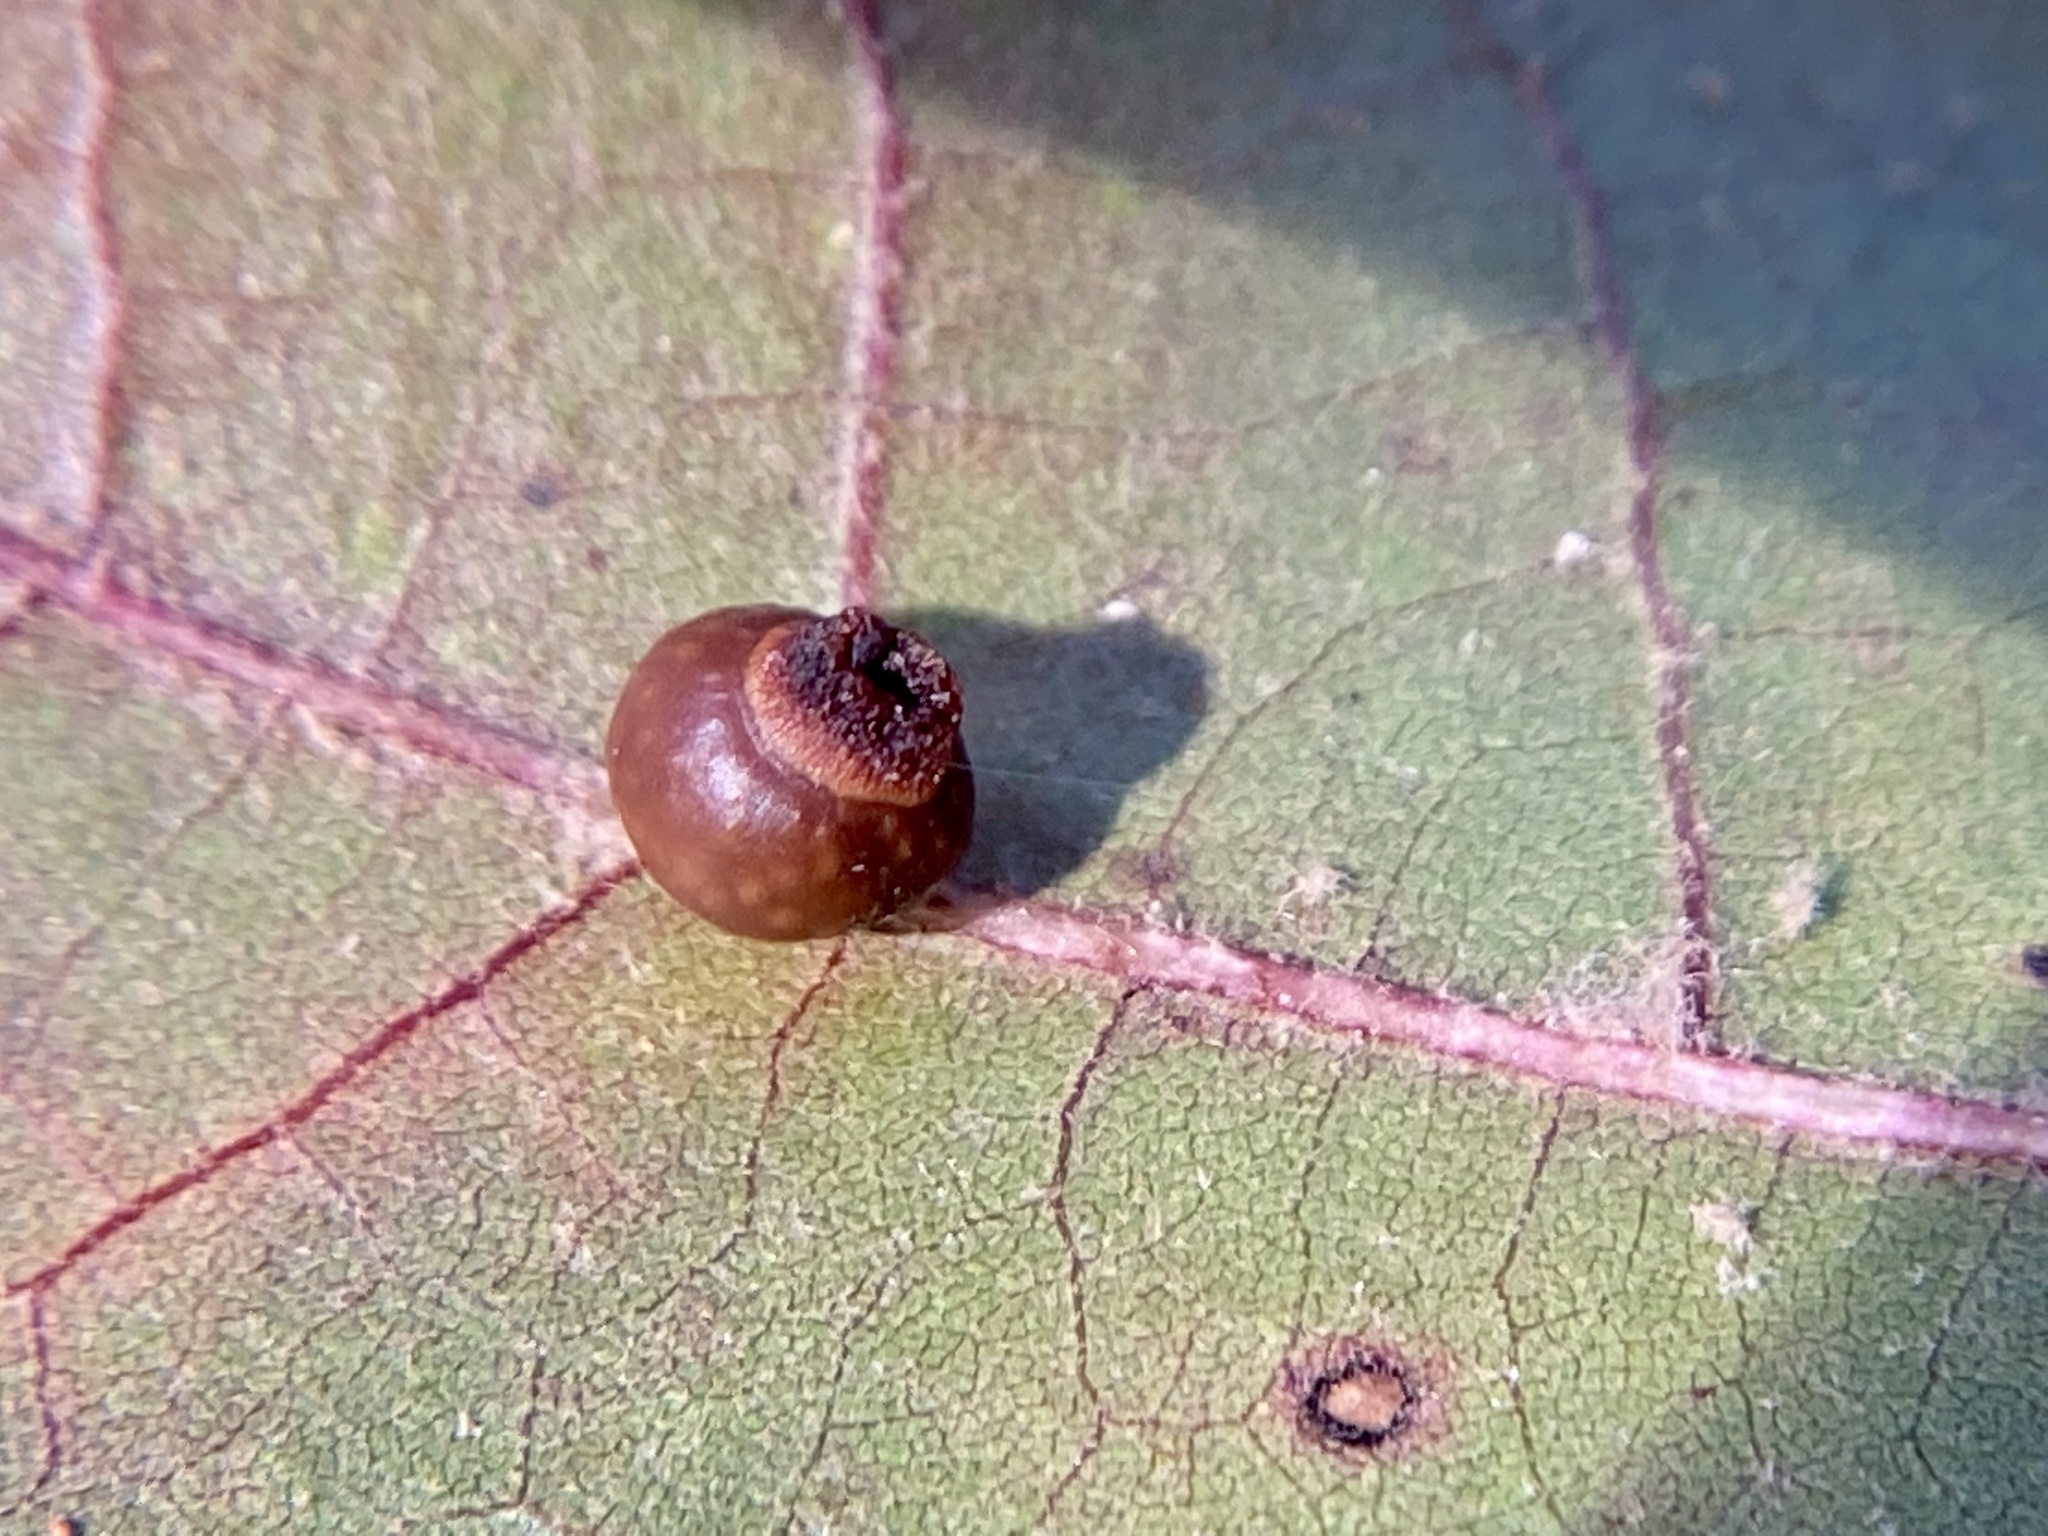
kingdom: Animalia
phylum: Arthropoda
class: Insecta
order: Hymenoptera
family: Cynipidae
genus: Kokkocynips
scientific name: Kokkocynips rileyi
